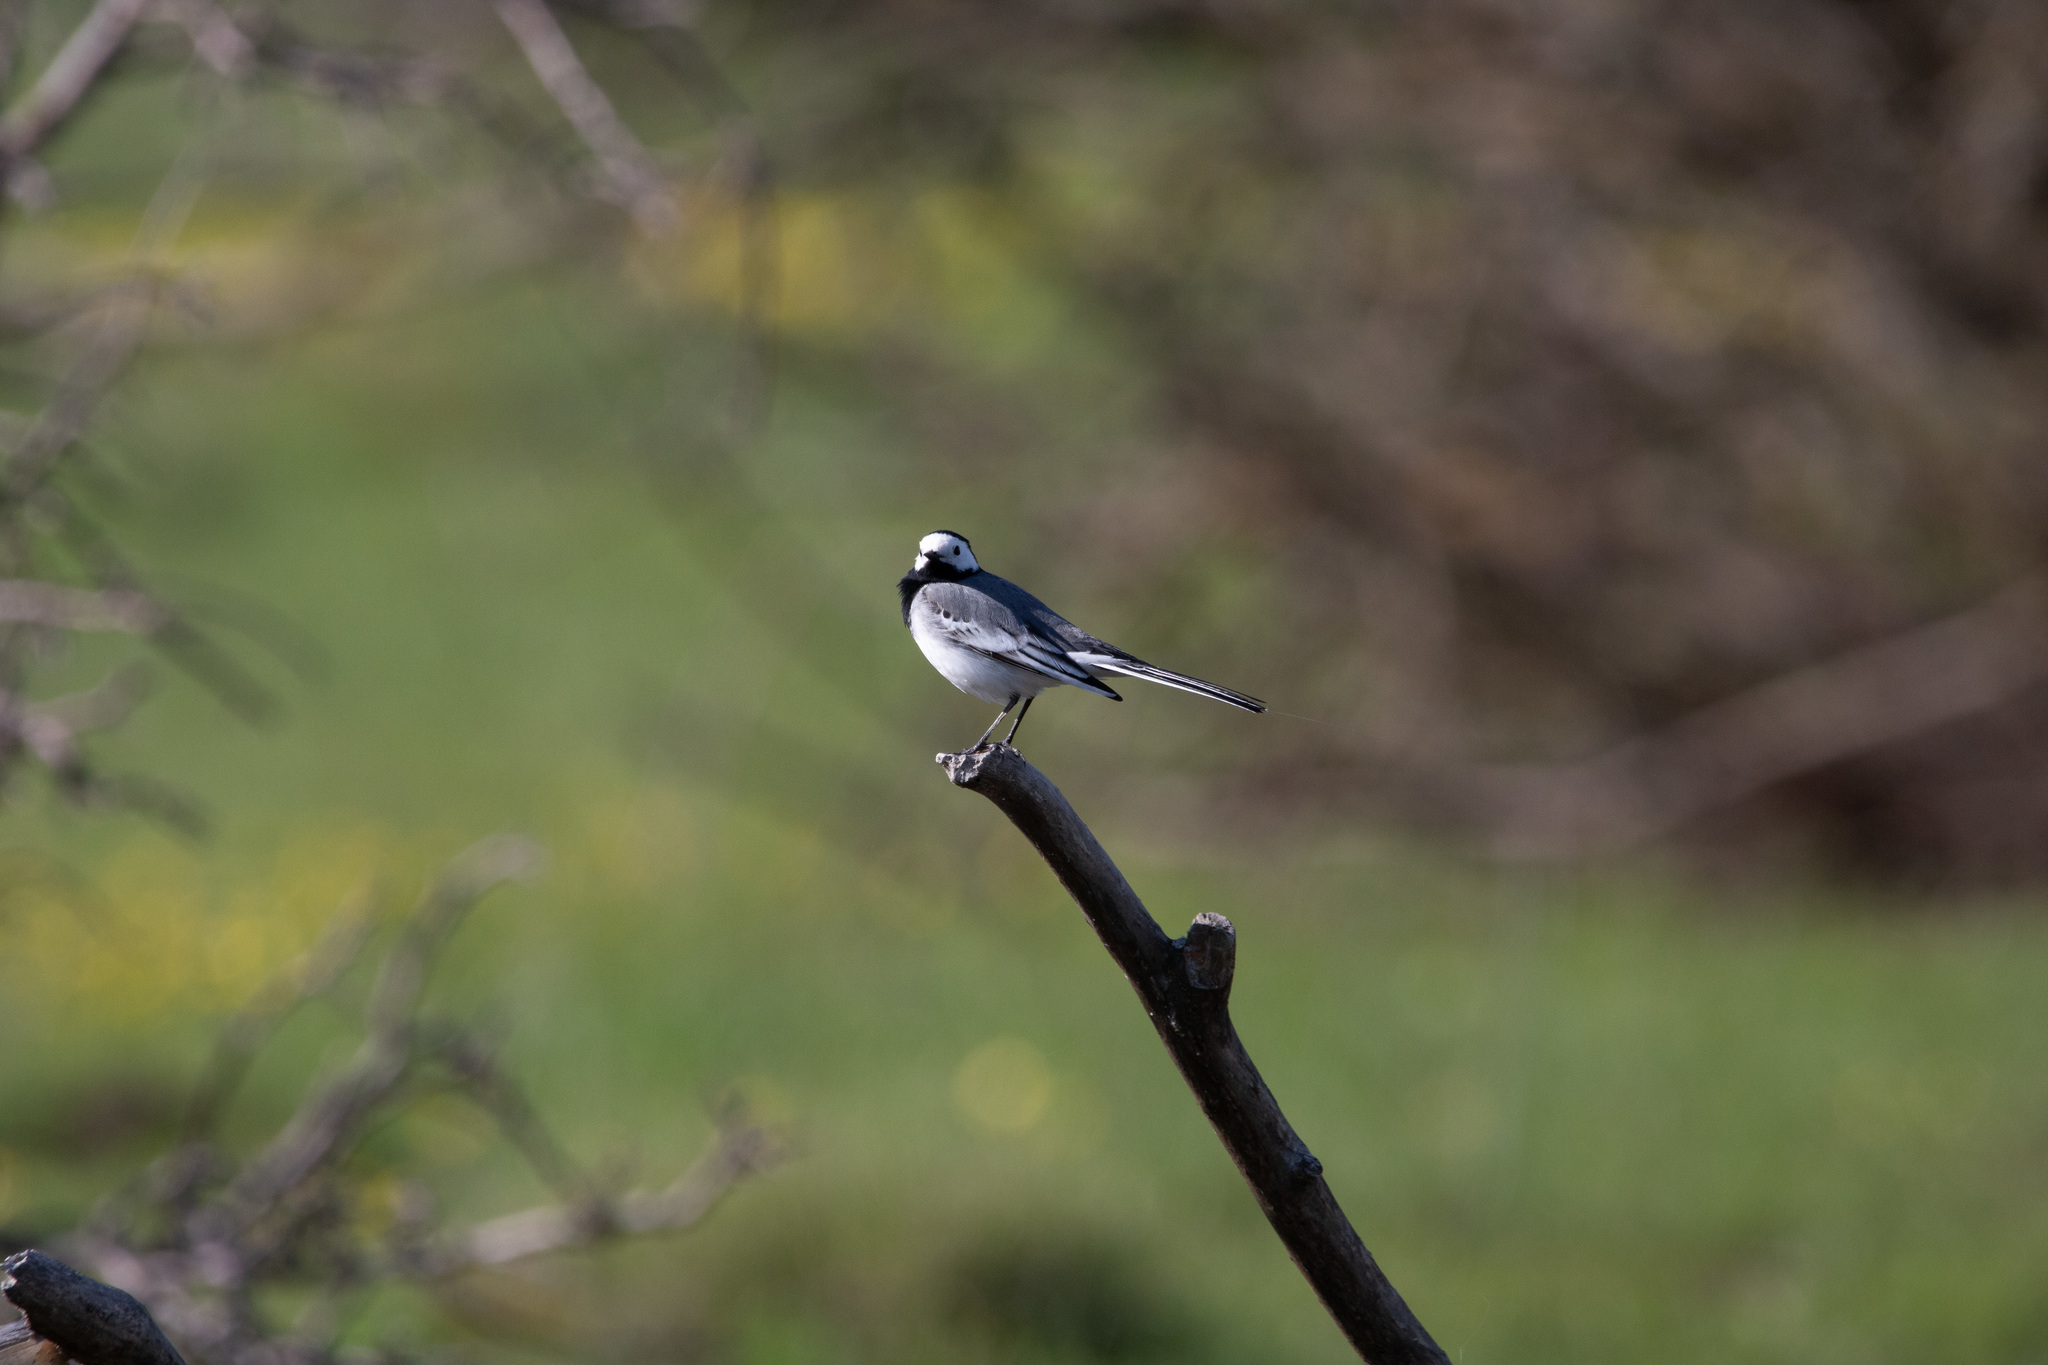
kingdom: Animalia
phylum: Chordata
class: Aves
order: Passeriformes
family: Motacillidae
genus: Motacilla
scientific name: Motacilla alba
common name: White wagtail
